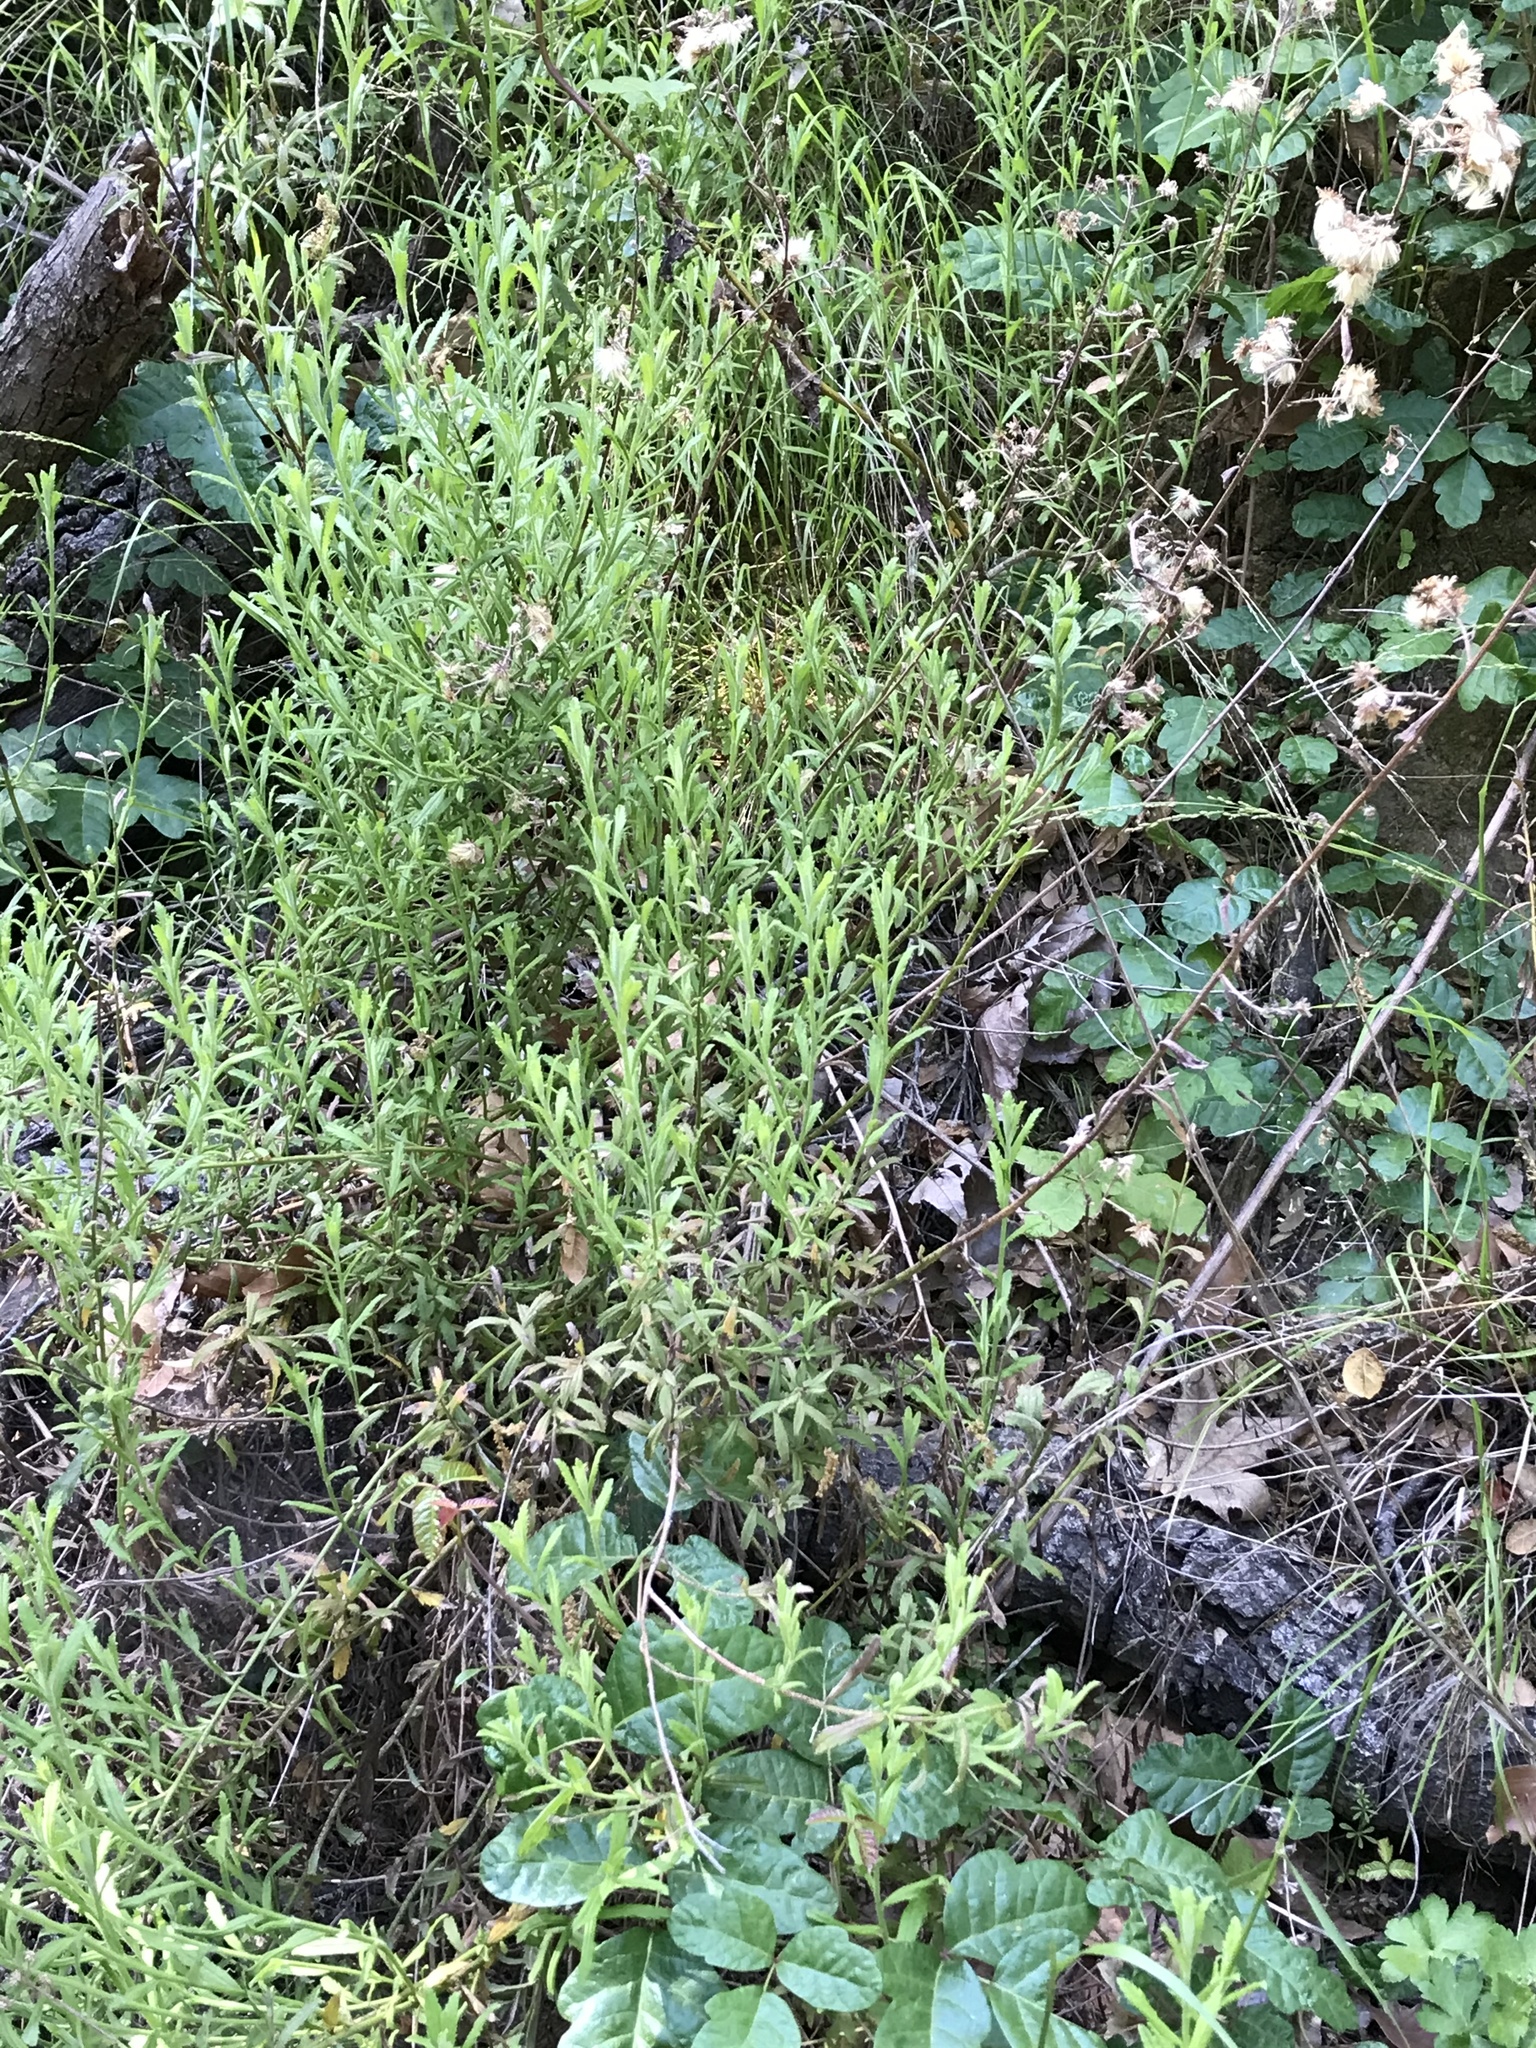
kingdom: Plantae
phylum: Tracheophyta
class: Magnoliopsida
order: Asterales
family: Asteraceae
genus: Baccharis
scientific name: Baccharis plummerae
